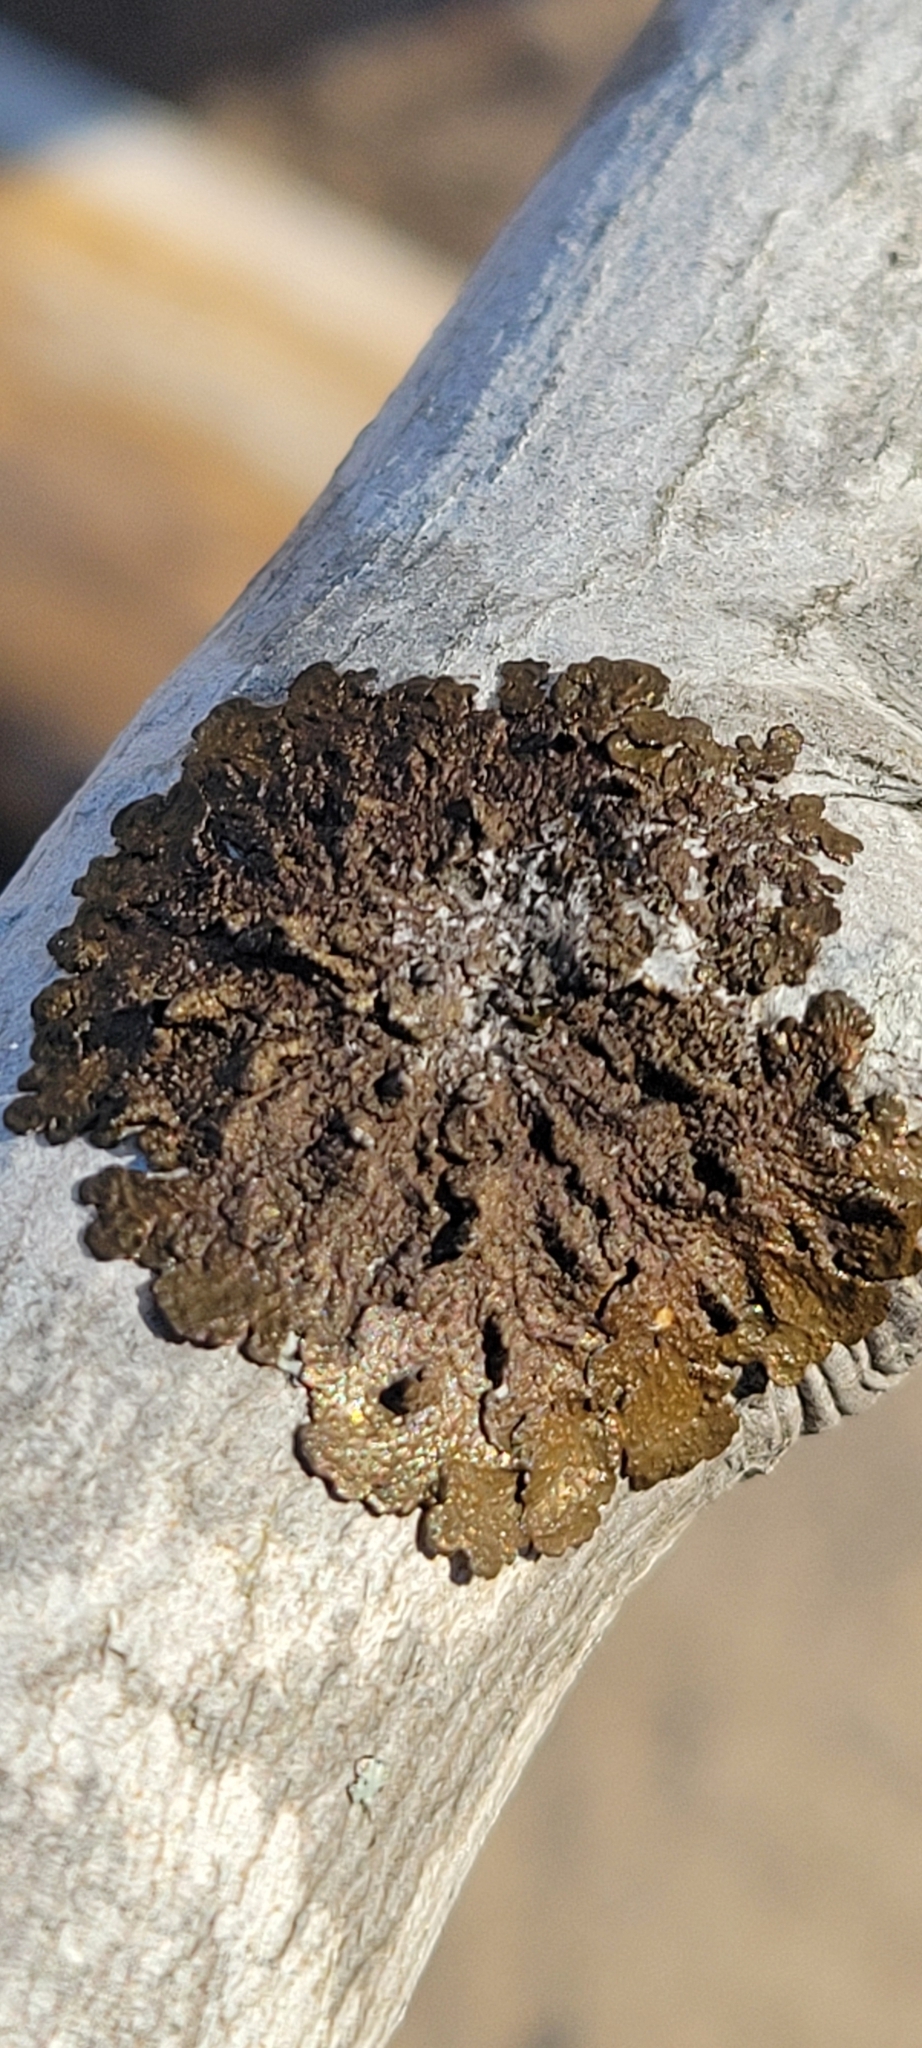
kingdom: Fungi
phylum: Ascomycota
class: Lecanoromycetes
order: Lecanorales
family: Parmeliaceae
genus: Melanelixia
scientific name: Melanelixia subaurifera
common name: Abraded camouflage lichen
